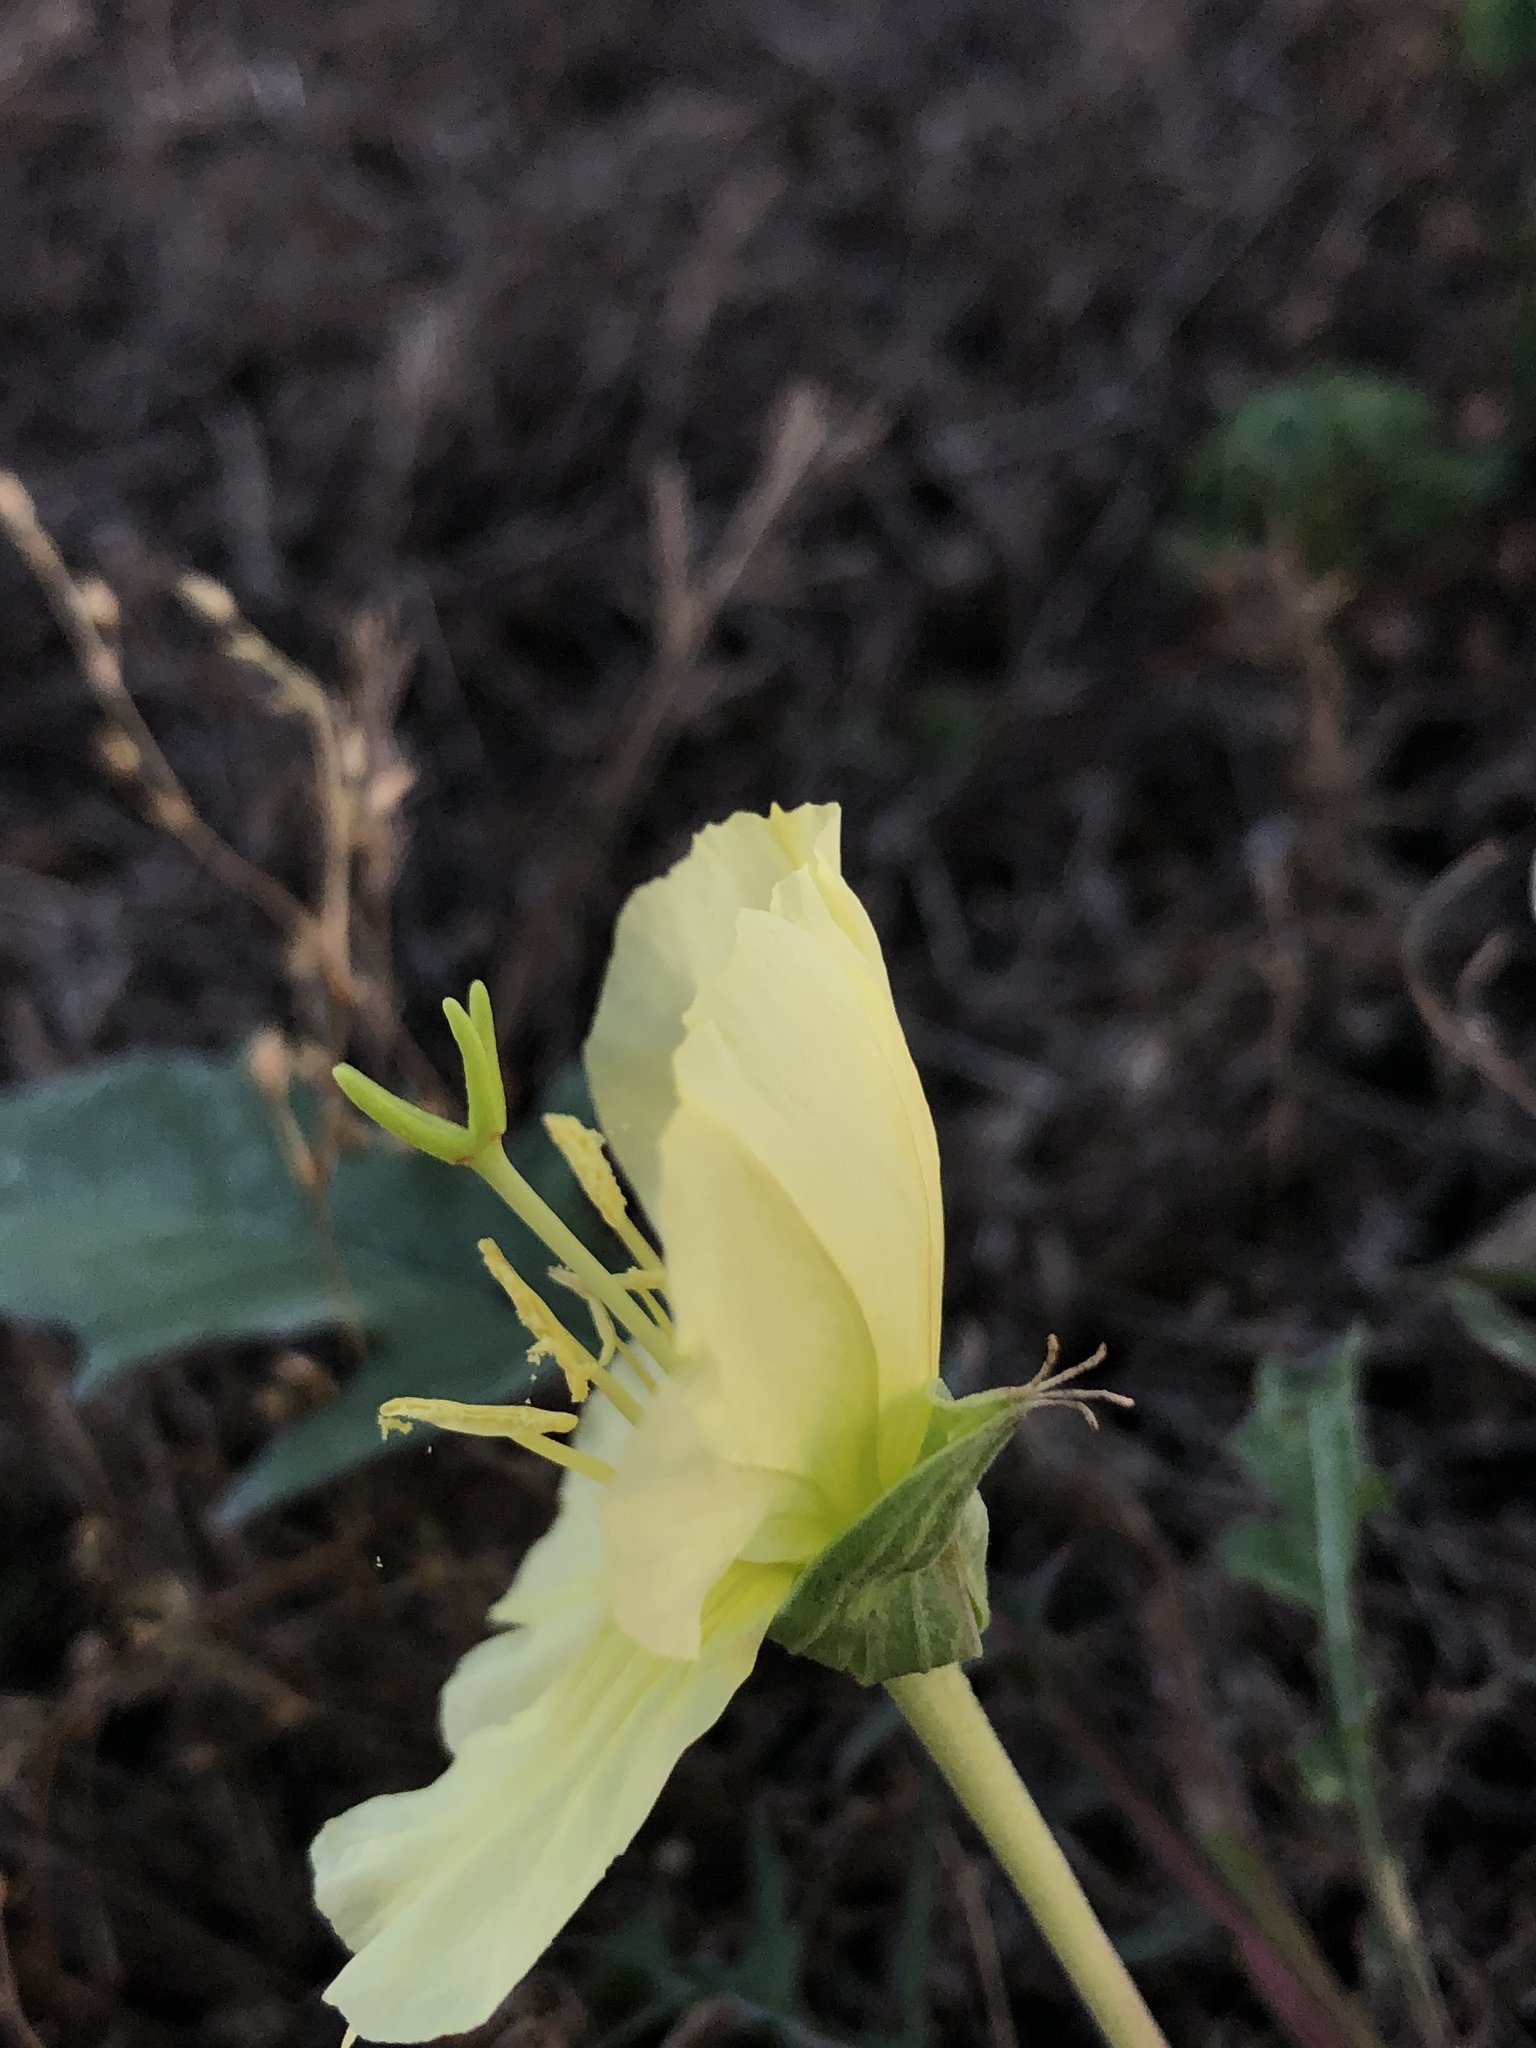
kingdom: Plantae
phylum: Tracheophyta
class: Magnoliopsida
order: Myrtales
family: Onagraceae
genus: Oenothera
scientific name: Oenothera triloba
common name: Sessile evening-primrose
